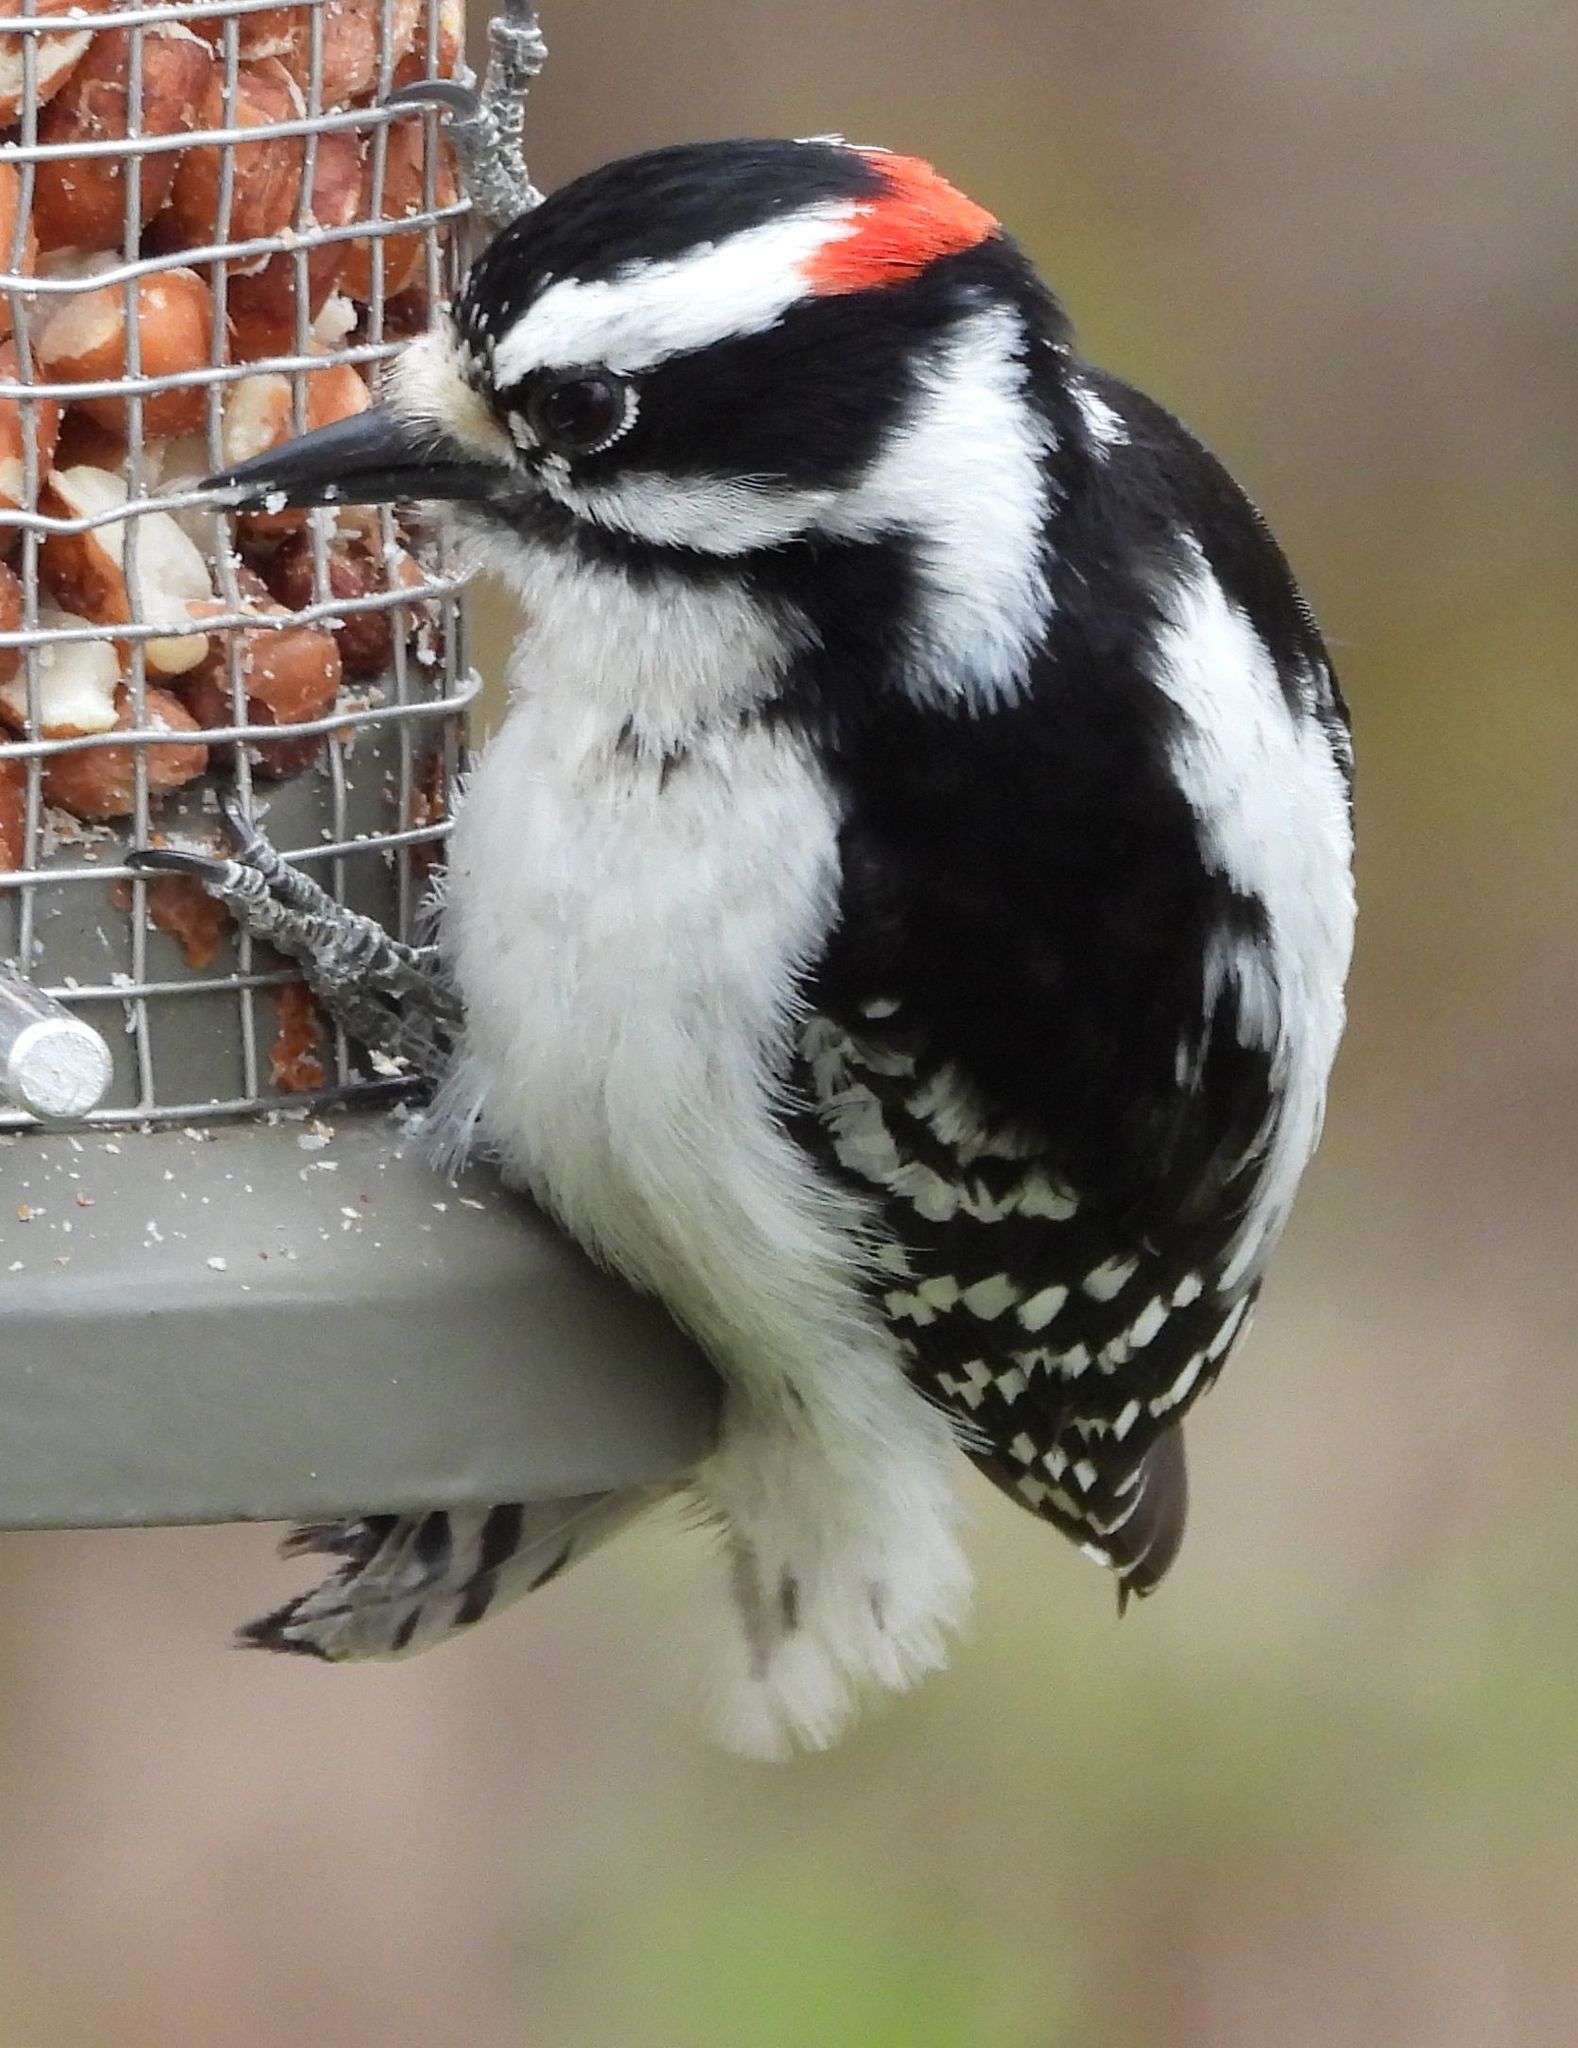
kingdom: Animalia
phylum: Chordata
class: Aves
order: Piciformes
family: Picidae
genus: Dryobates
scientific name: Dryobates pubescens
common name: Downy woodpecker
